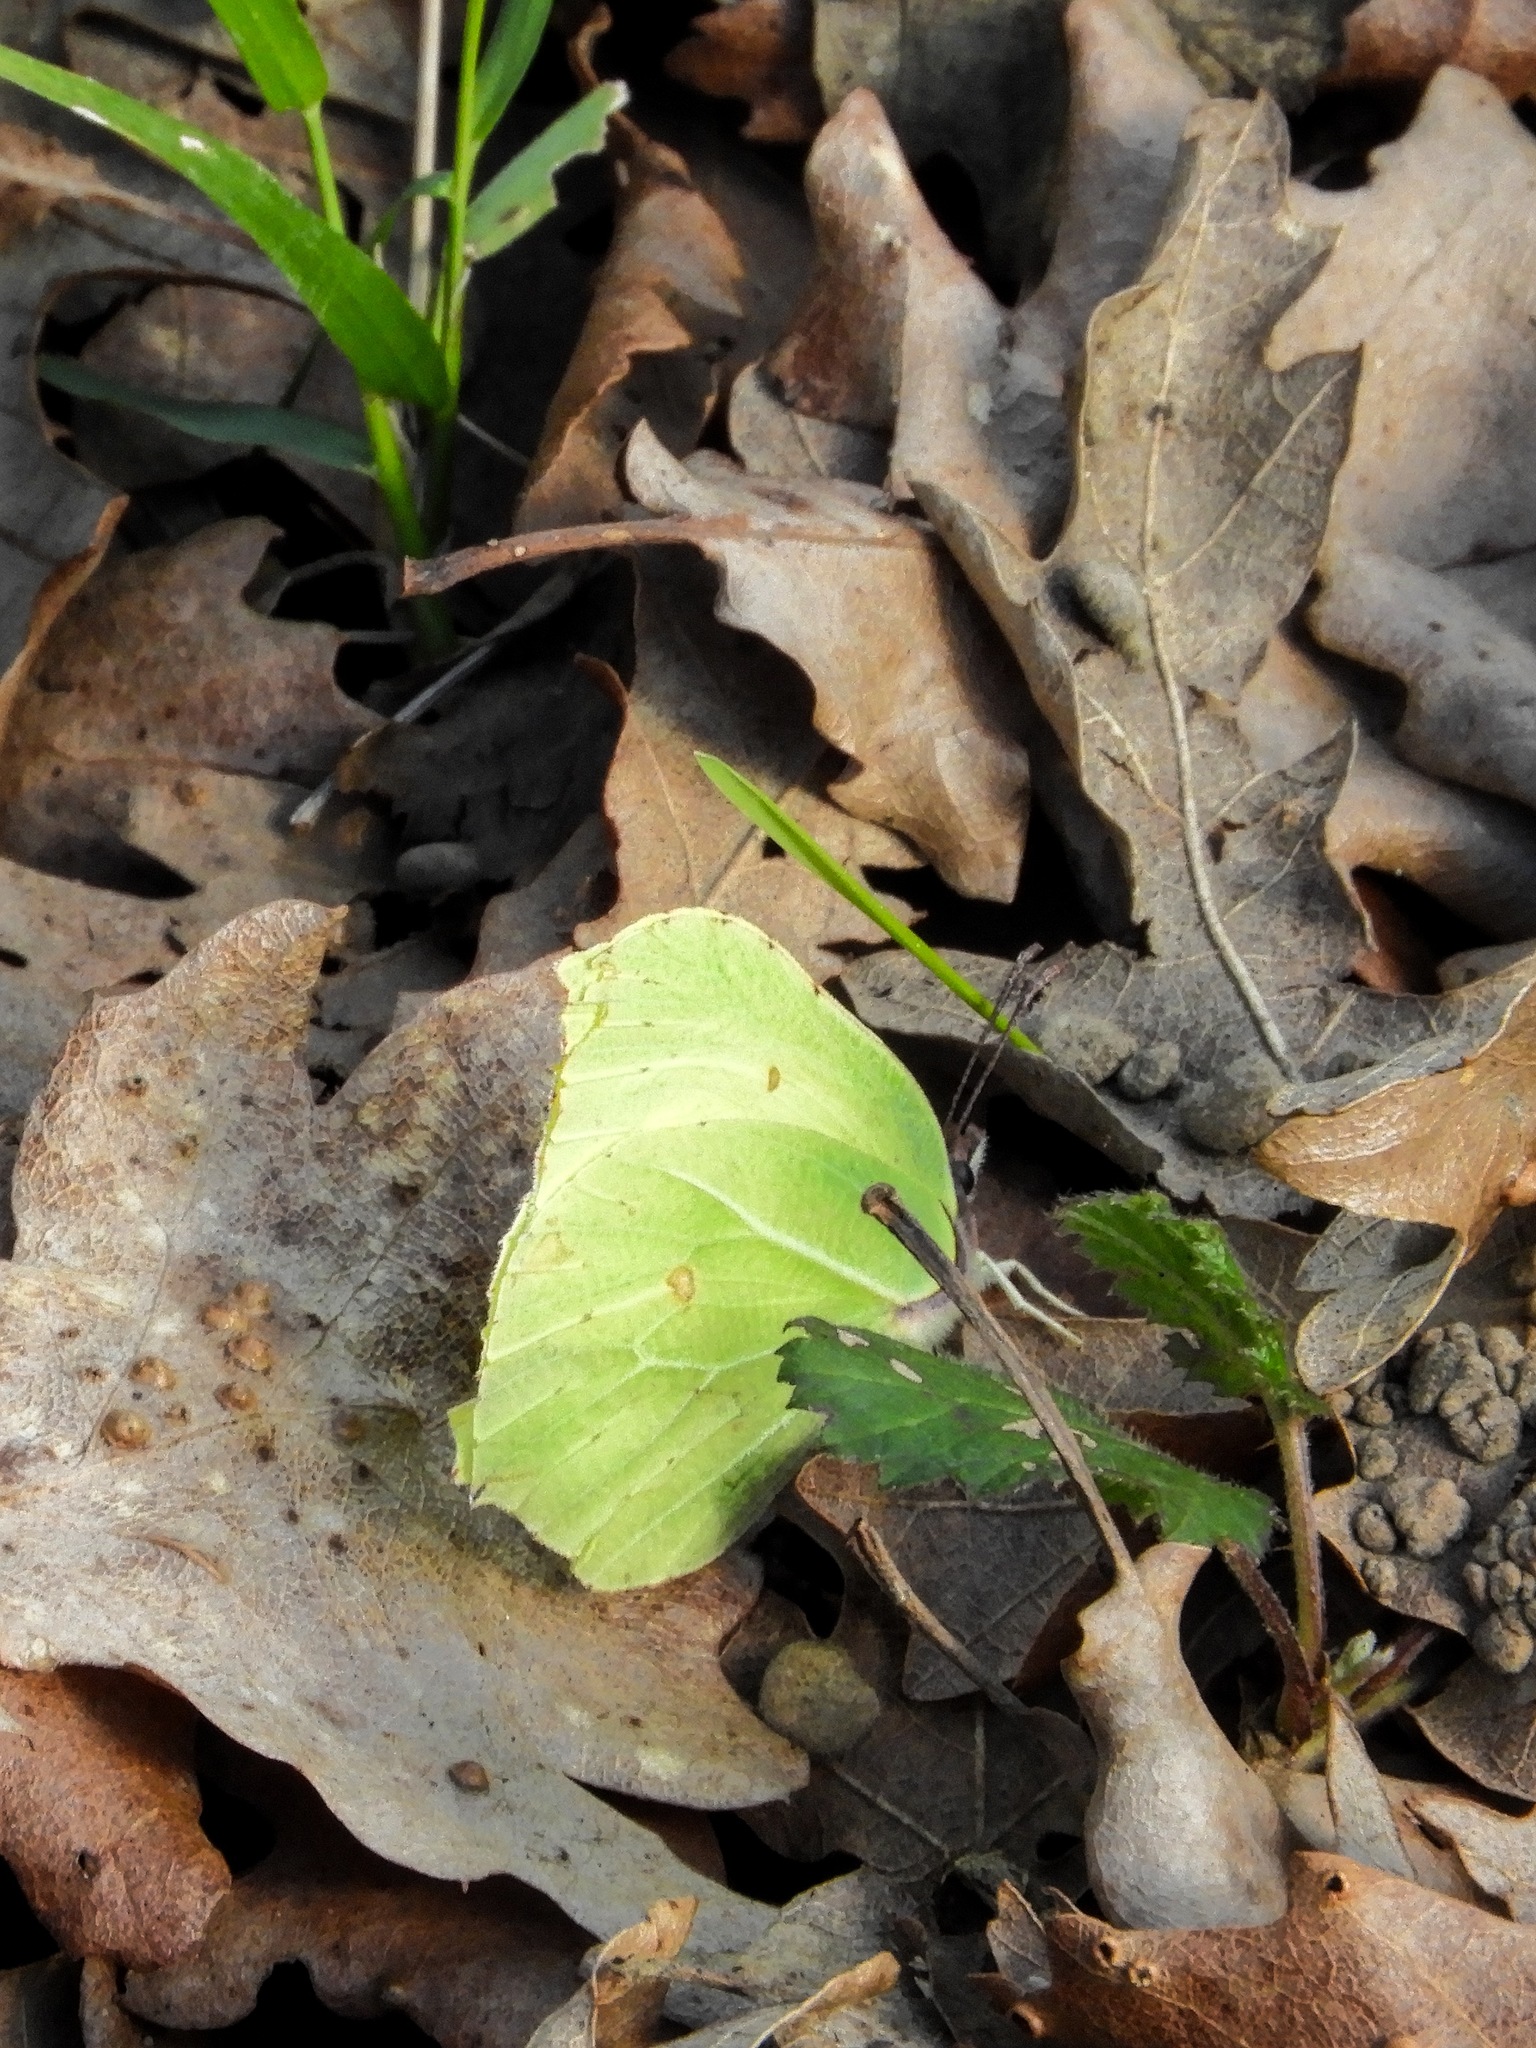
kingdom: Animalia
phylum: Arthropoda
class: Insecta
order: Lepidoptera
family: Pieridae
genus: Gonepteryx
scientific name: Gonepteryx rhamni
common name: Brimstone
